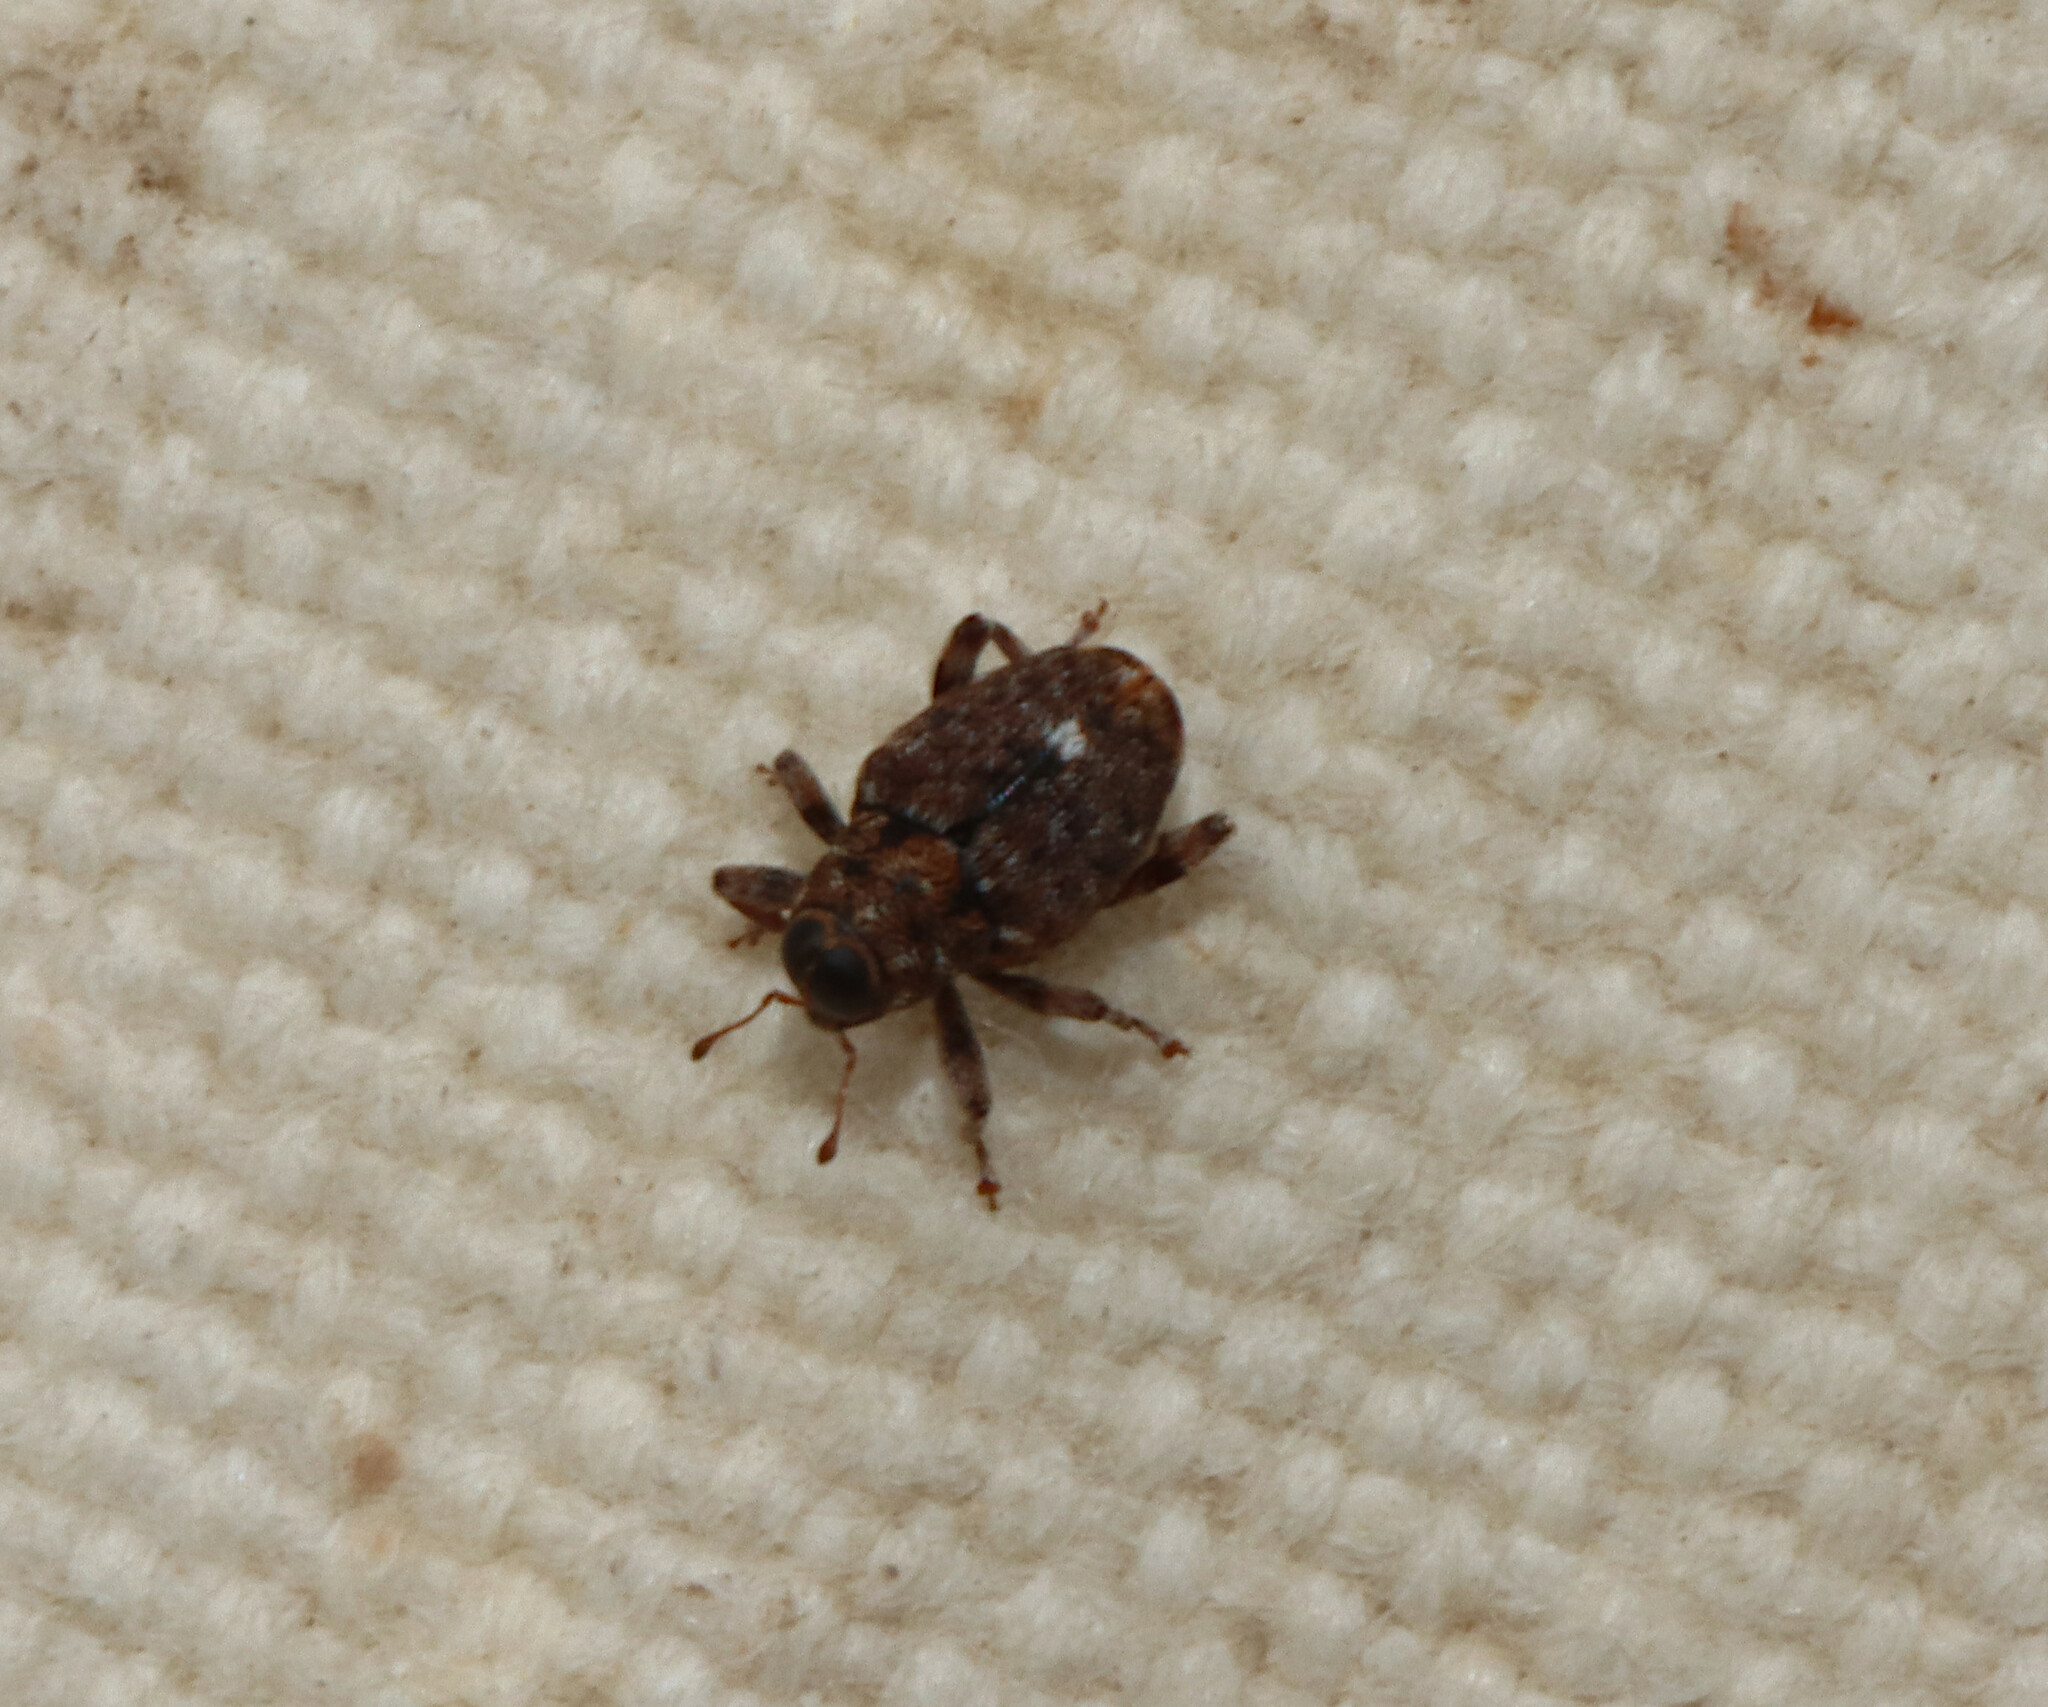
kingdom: Animalia
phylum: Arthropoda
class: Insecta
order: Coleoptera
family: Curculionidae
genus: Lechriops
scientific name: Lechriops oculatus
